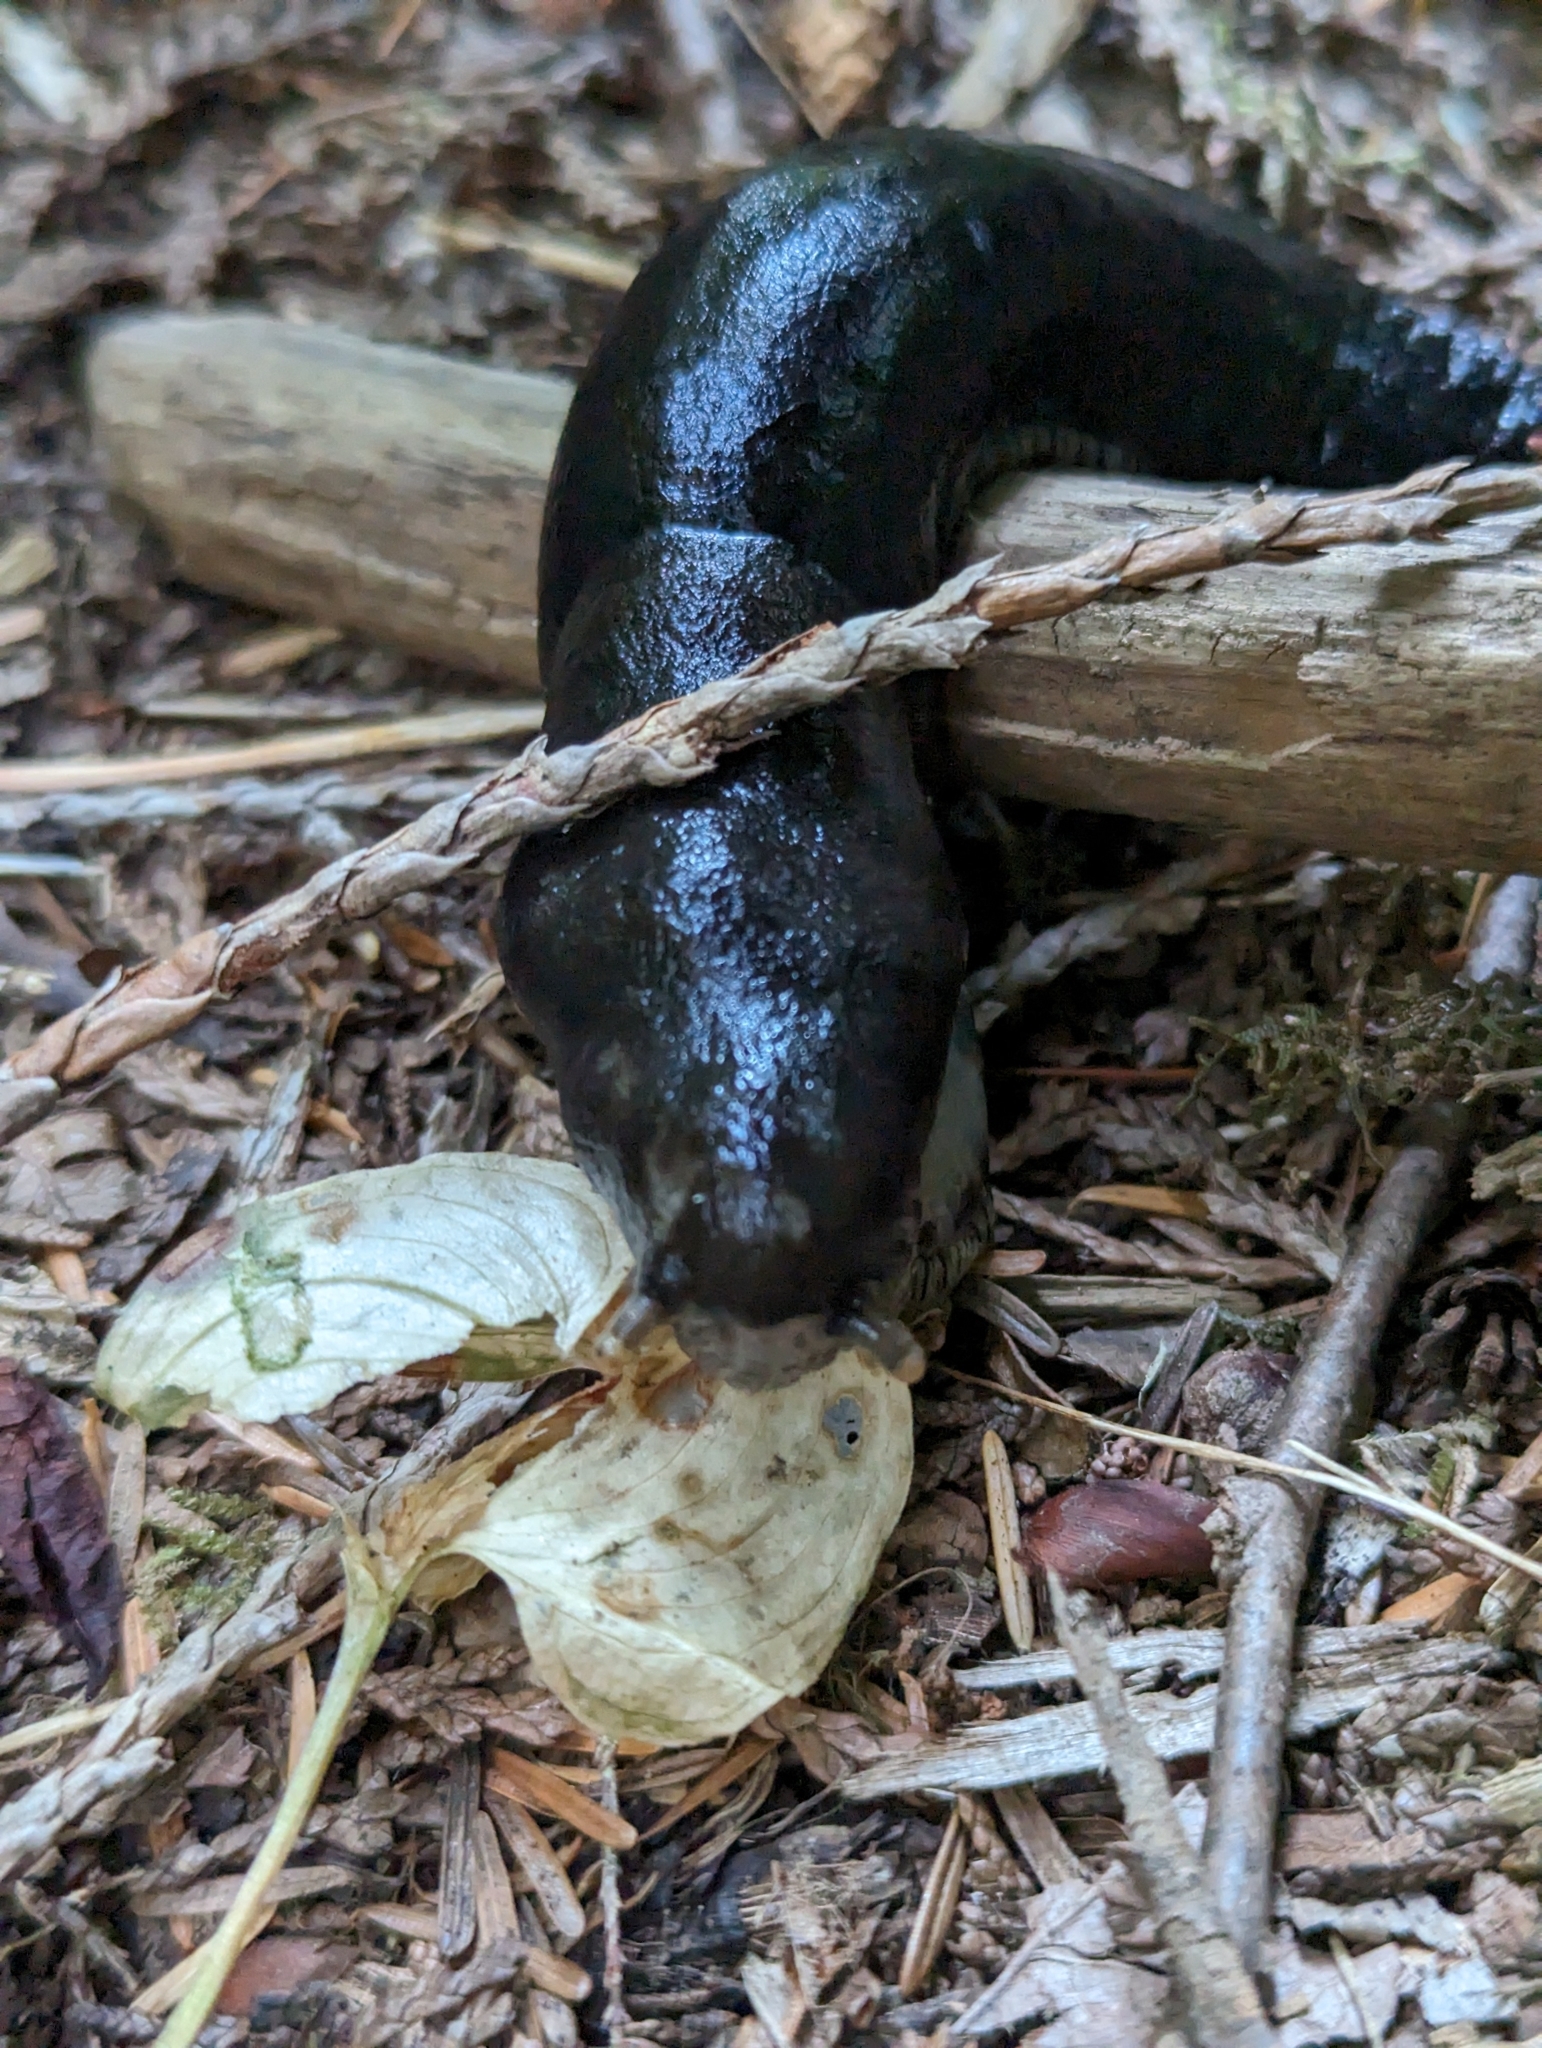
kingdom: Animalia
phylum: Mollusca
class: Gastropoda
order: Stylommatophora
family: Ariolimacidae
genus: Ariolimax
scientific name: Ariolimax columbianus
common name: Pacific banana slug
